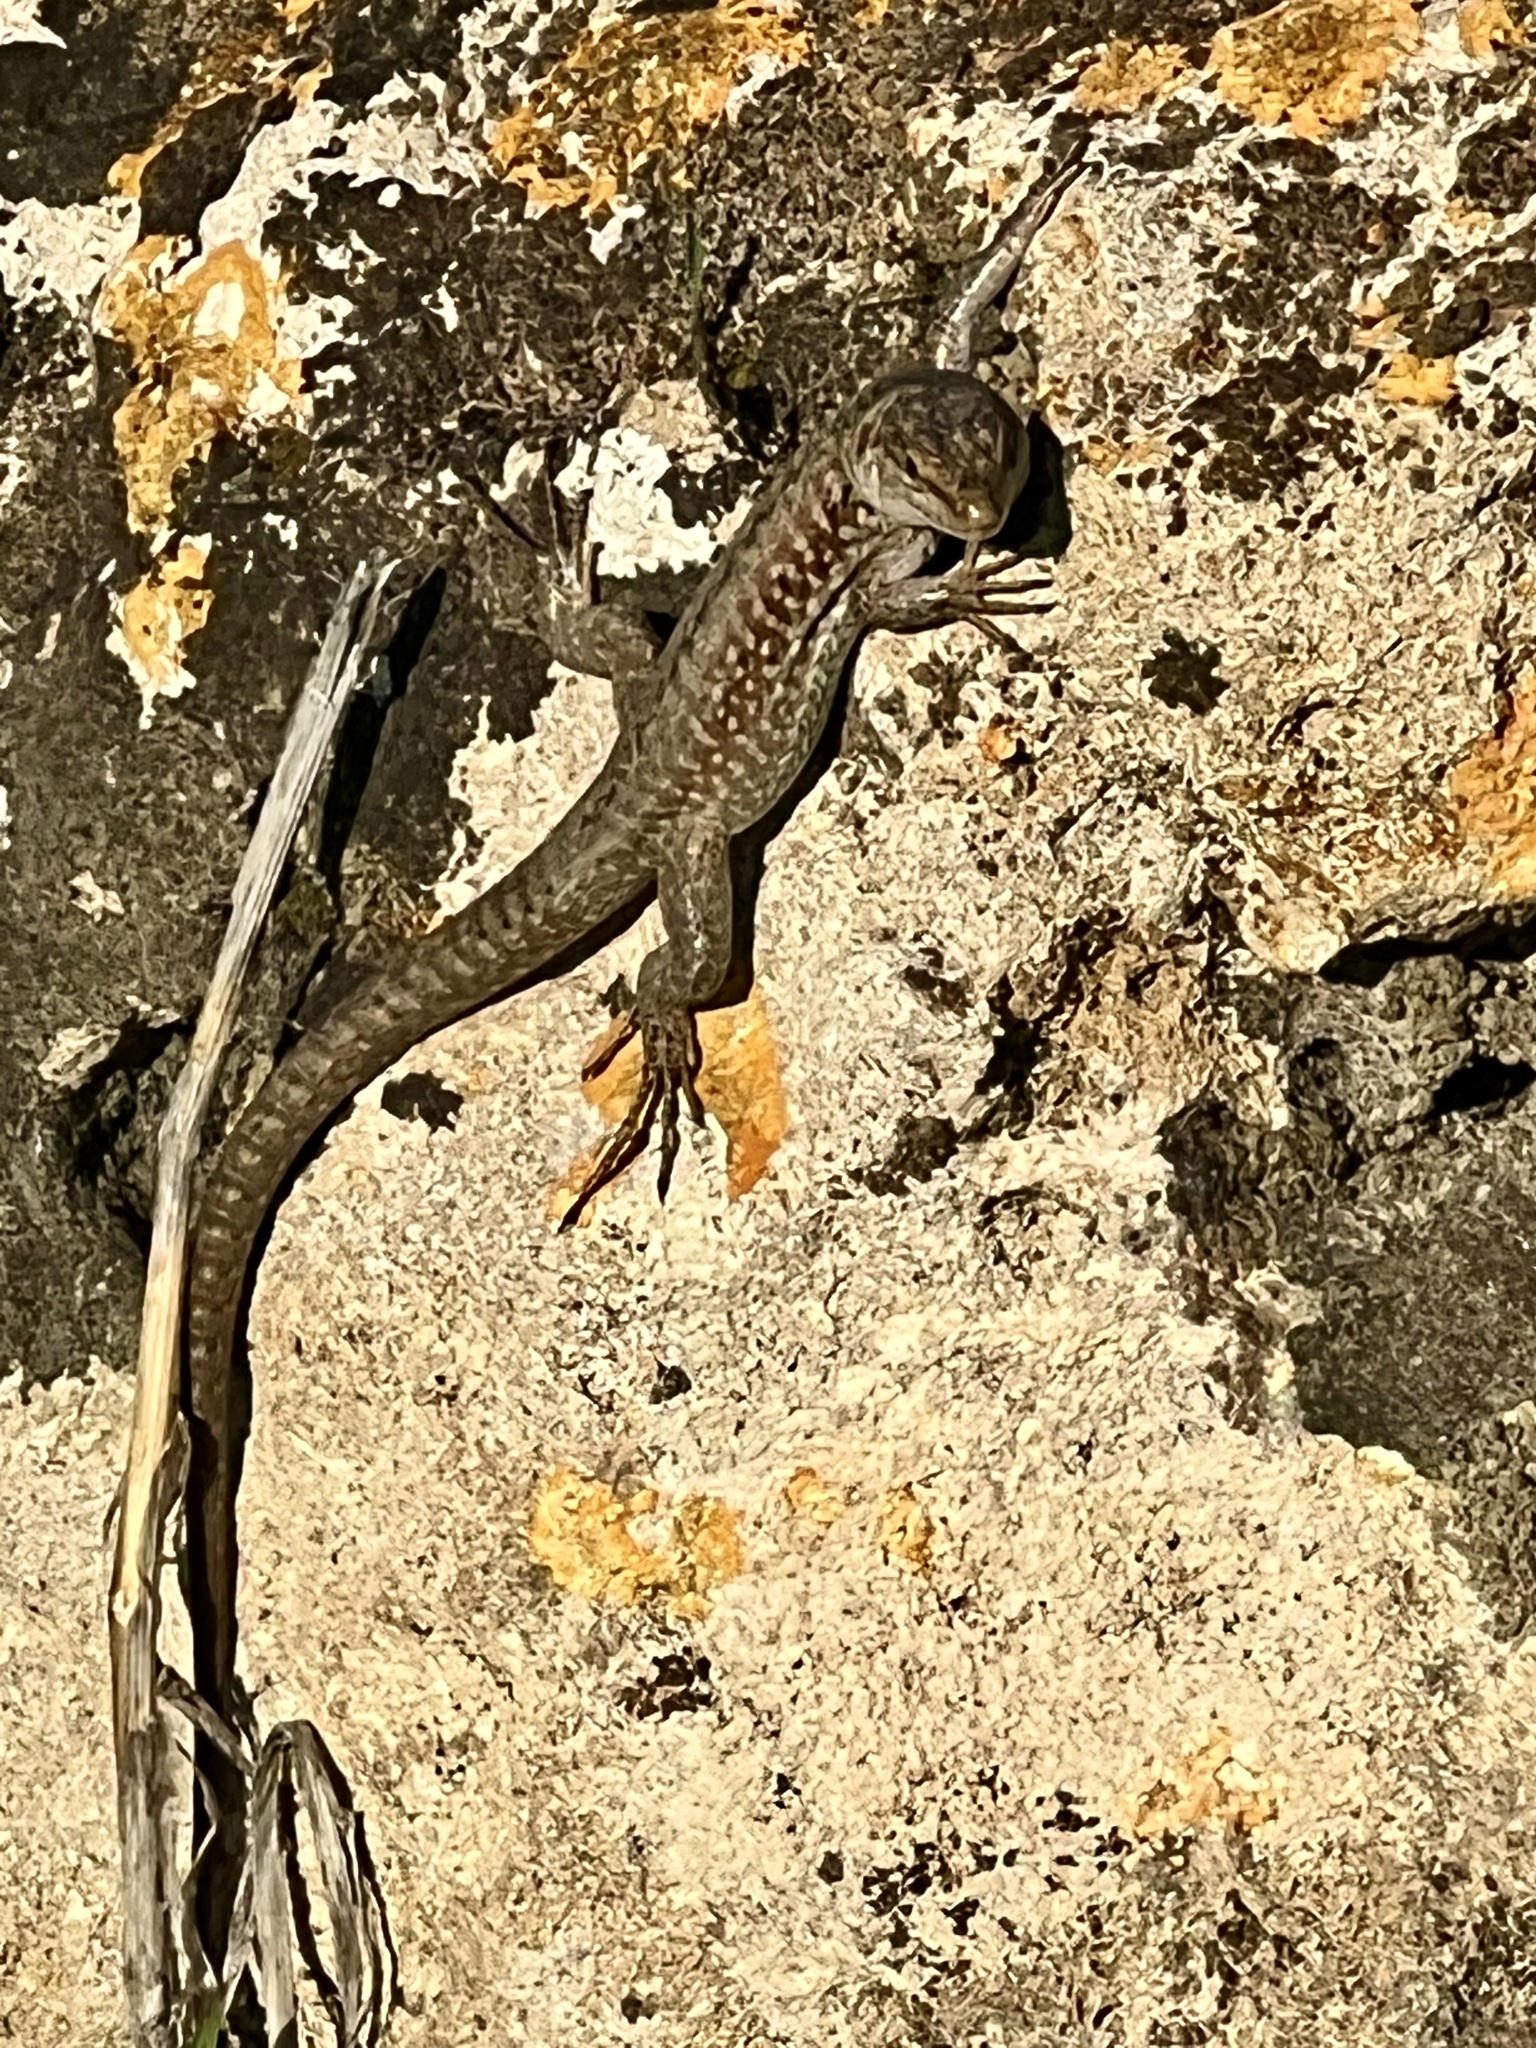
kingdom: Animalia
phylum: Chordata
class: Squamata
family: Lacertidae
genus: Podarcis
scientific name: Podarcis siculus
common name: Italian wall lizard
